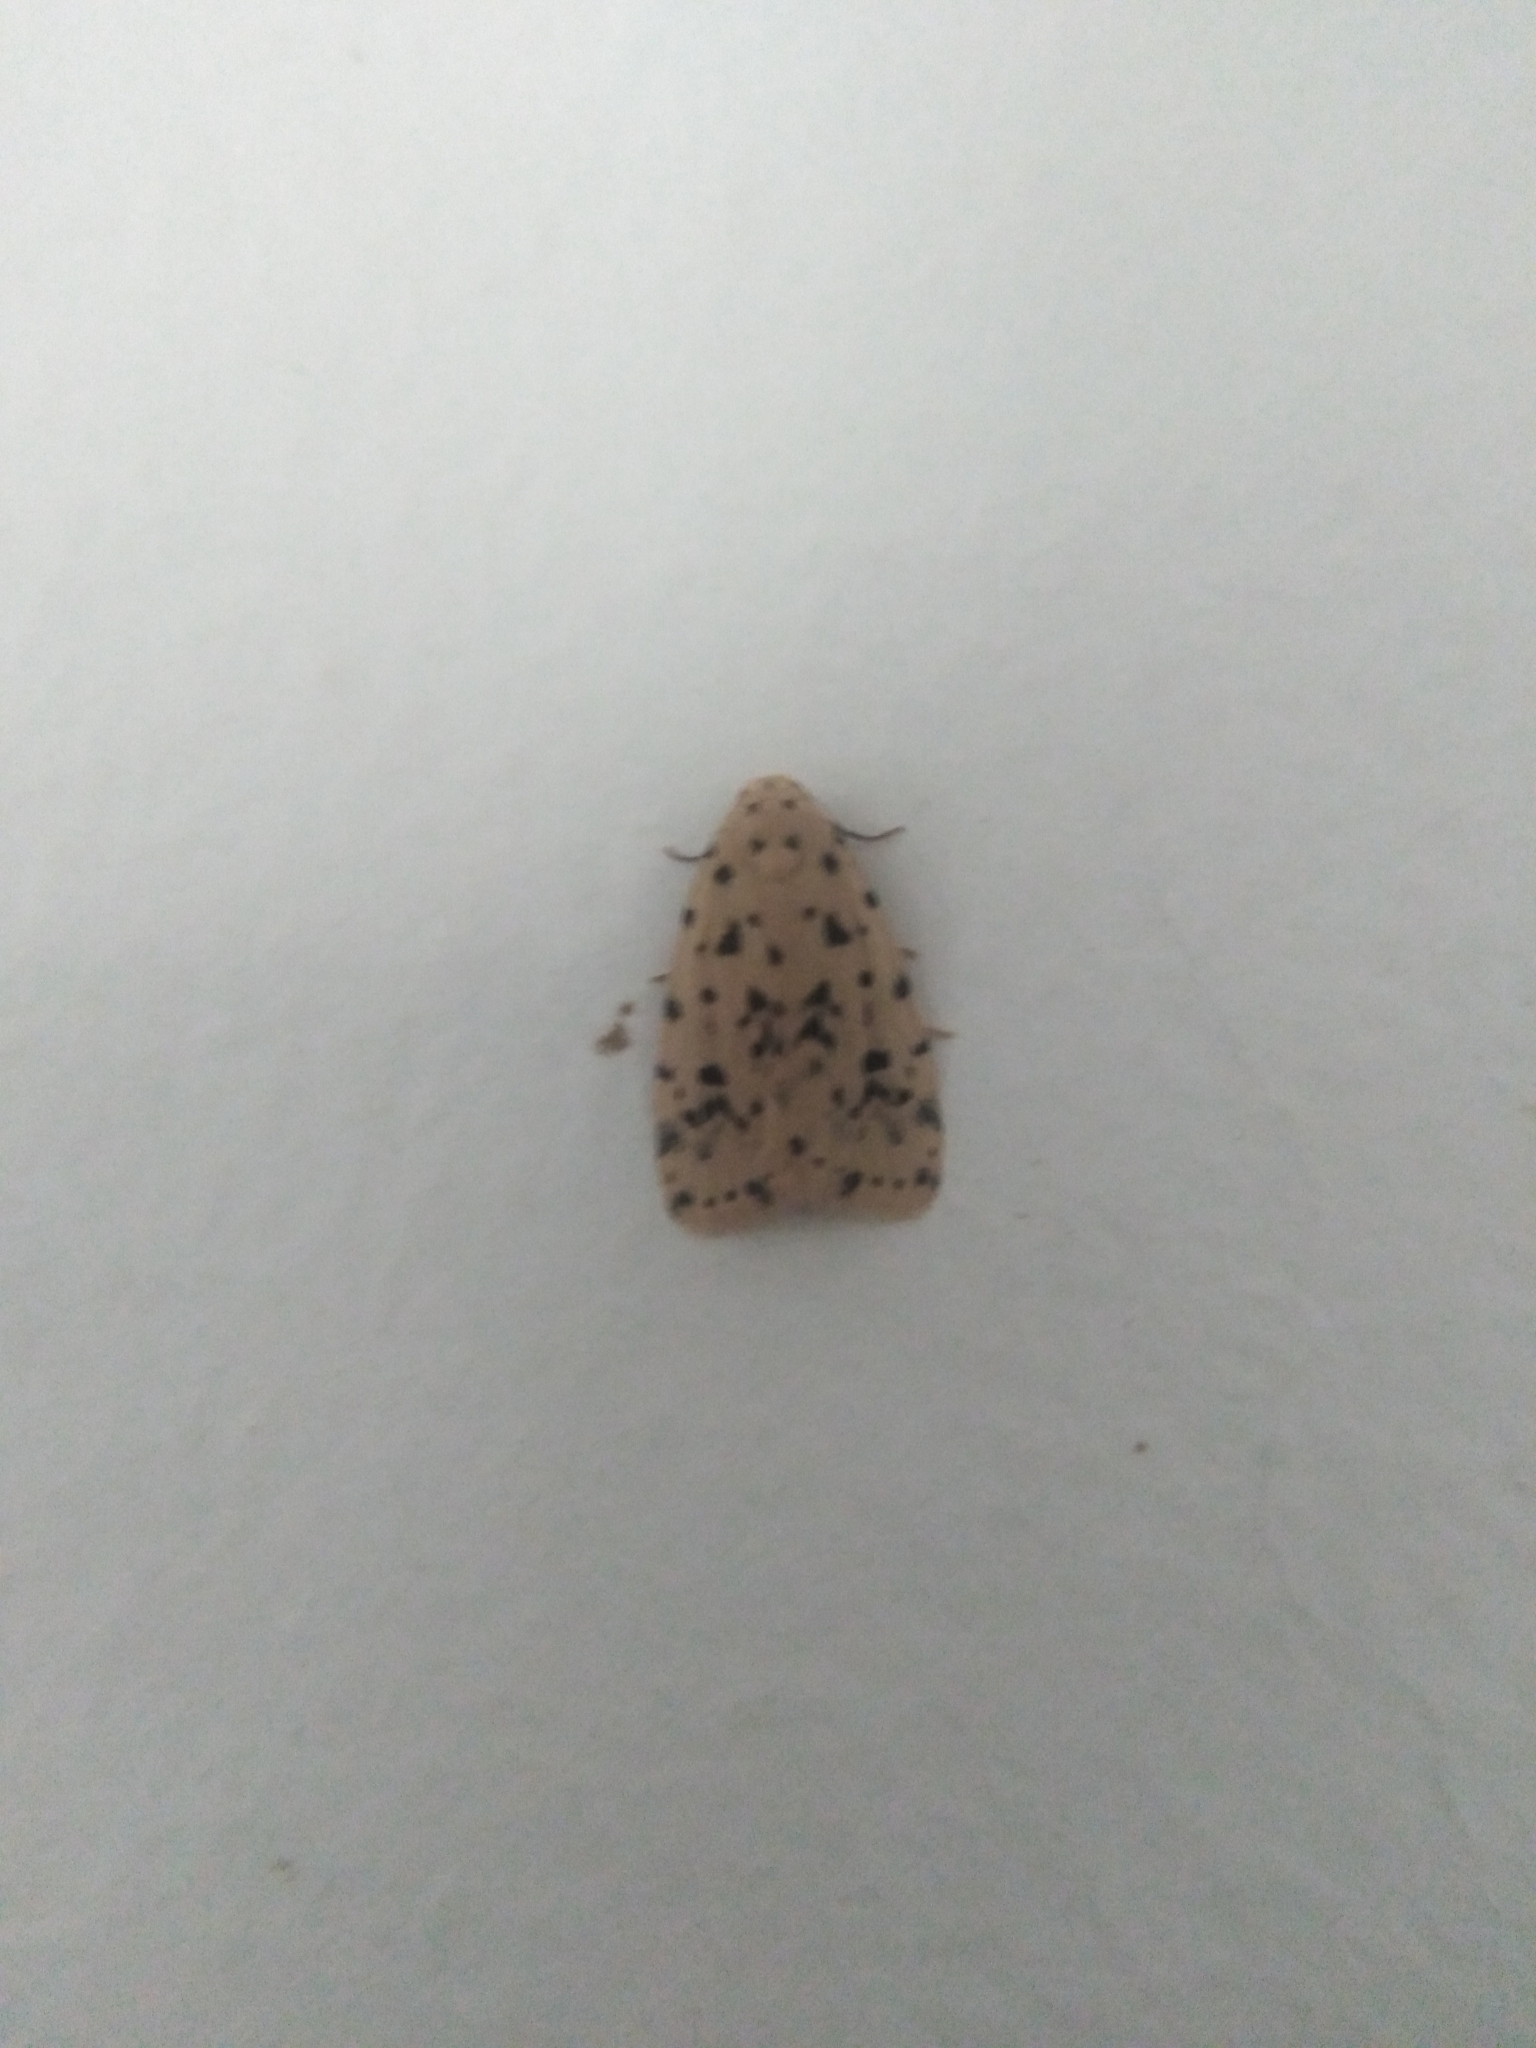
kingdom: Animalia
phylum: Arthropoda
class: Insecta
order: Lepidoptera
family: Erebidae
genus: Siccia
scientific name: Siccia sordida
